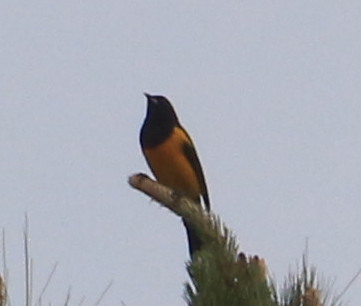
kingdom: Animalia
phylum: Chordata
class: Aves
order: Passeriformes
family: Icteridae
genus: Icterus
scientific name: Icterus wagleri
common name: Black-vented oriole
